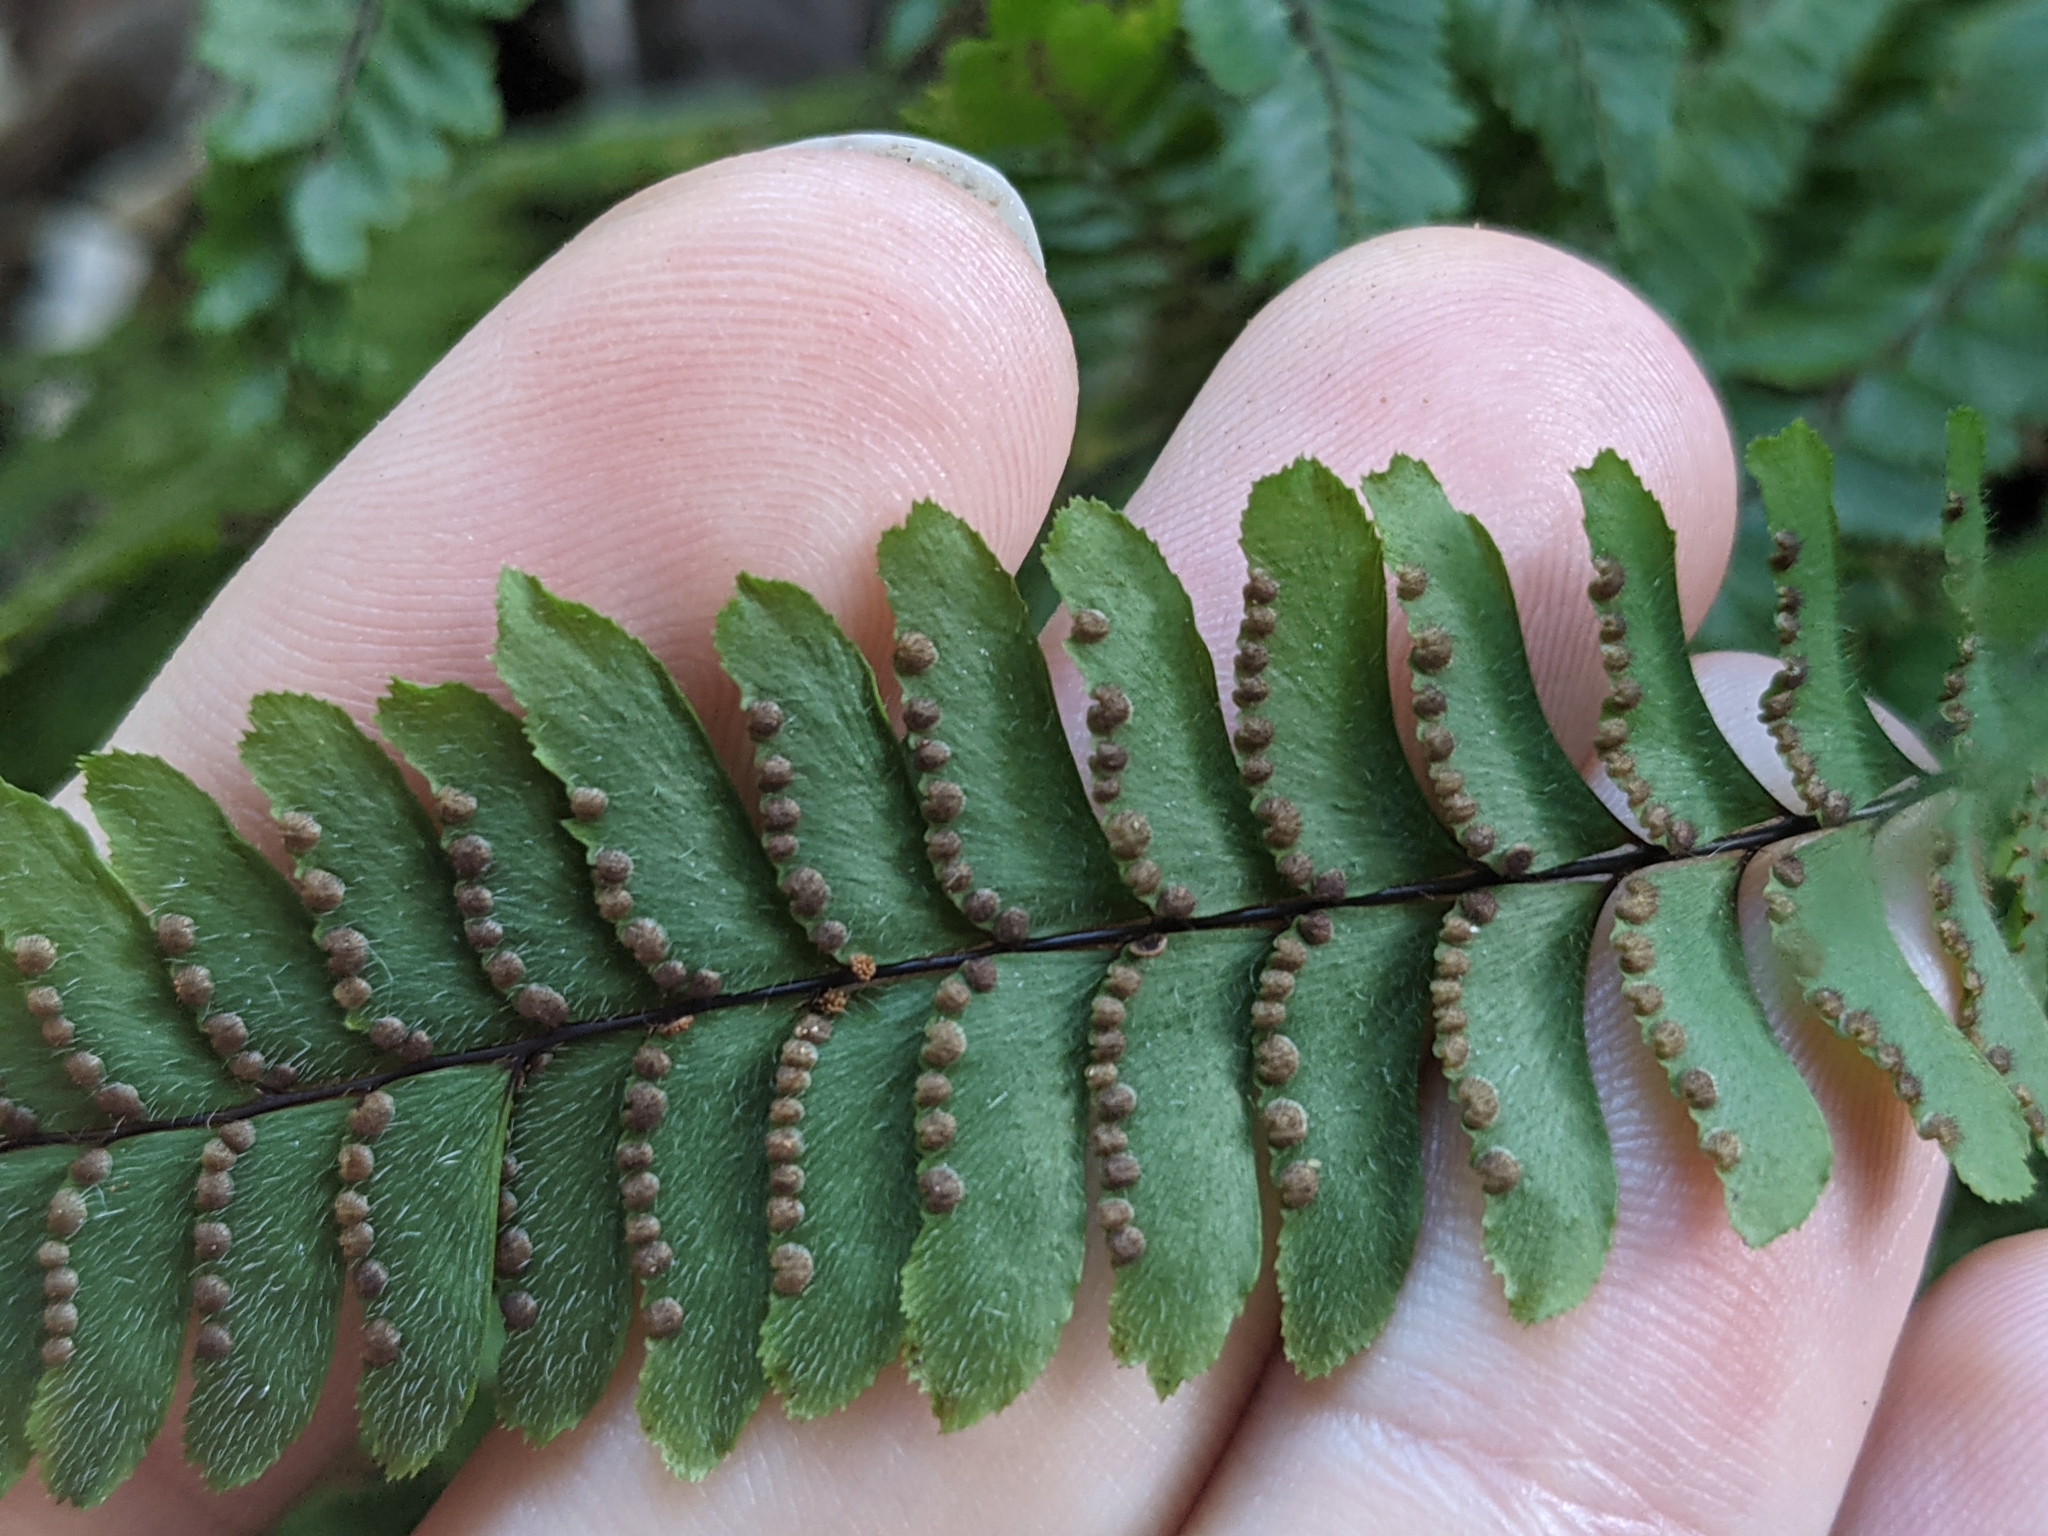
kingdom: Plantae
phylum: Tracheophyta
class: Polypodiopsida
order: Polypodiales
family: Pteridaceae
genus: Adiantum
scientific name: Adiantum hispidulum
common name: Rough maidenhair
